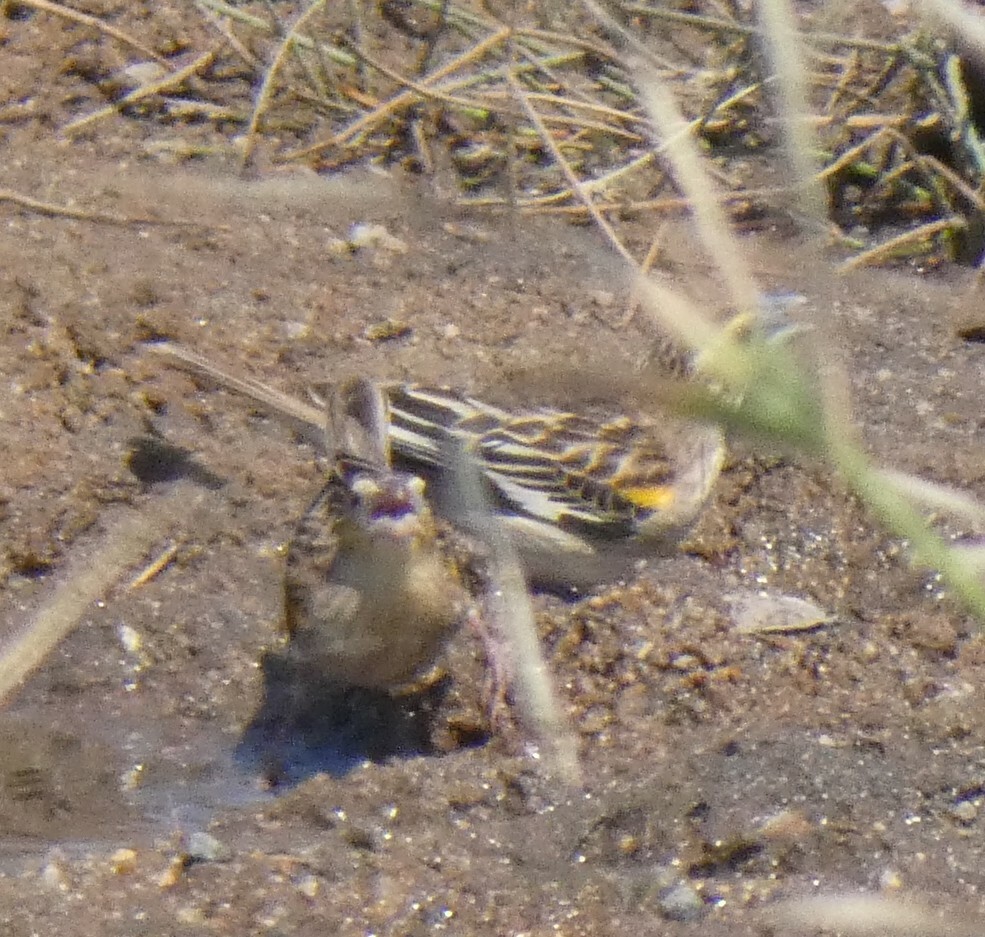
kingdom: Animalia
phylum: Chordata
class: Aves
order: Passeriformes
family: Ploceidae
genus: Euplectes
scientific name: Euplectes albonotatus
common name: White-winged widowbird
